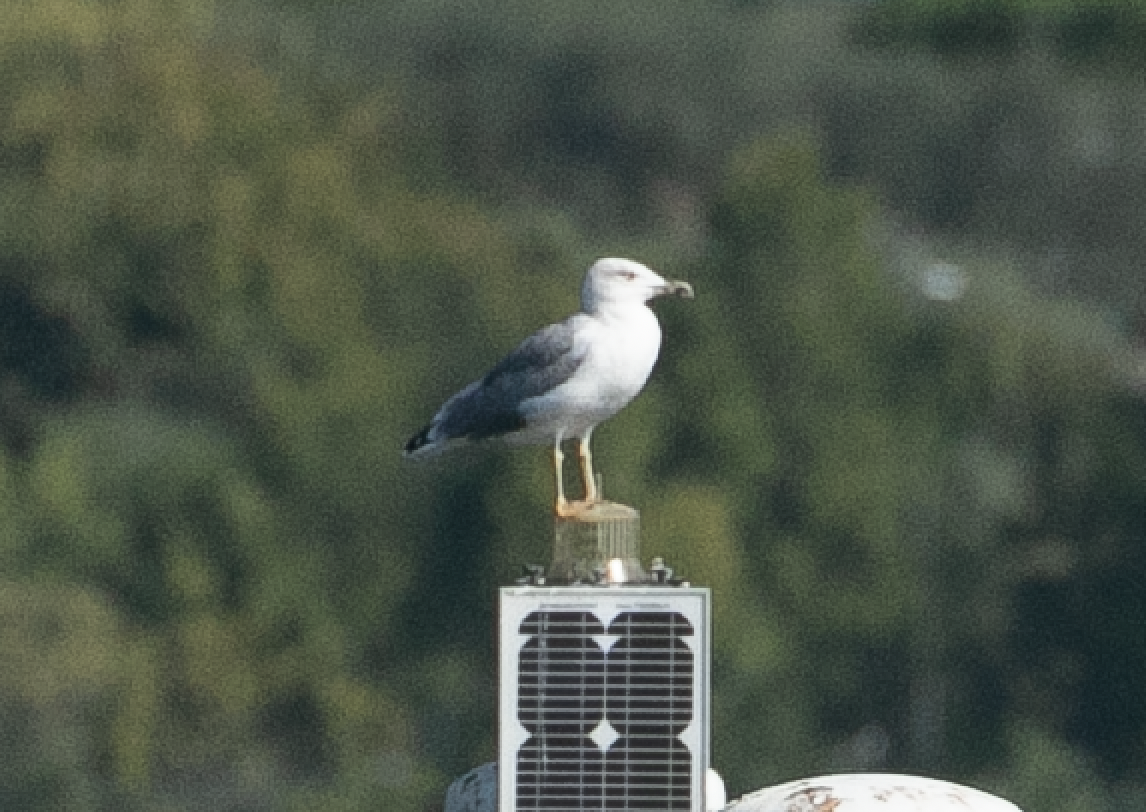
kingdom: Animalia
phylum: Chordata
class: Aves
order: Charadriiformes
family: Laridae
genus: Larus
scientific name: Larus michahellis
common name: Yellow-legged gull
